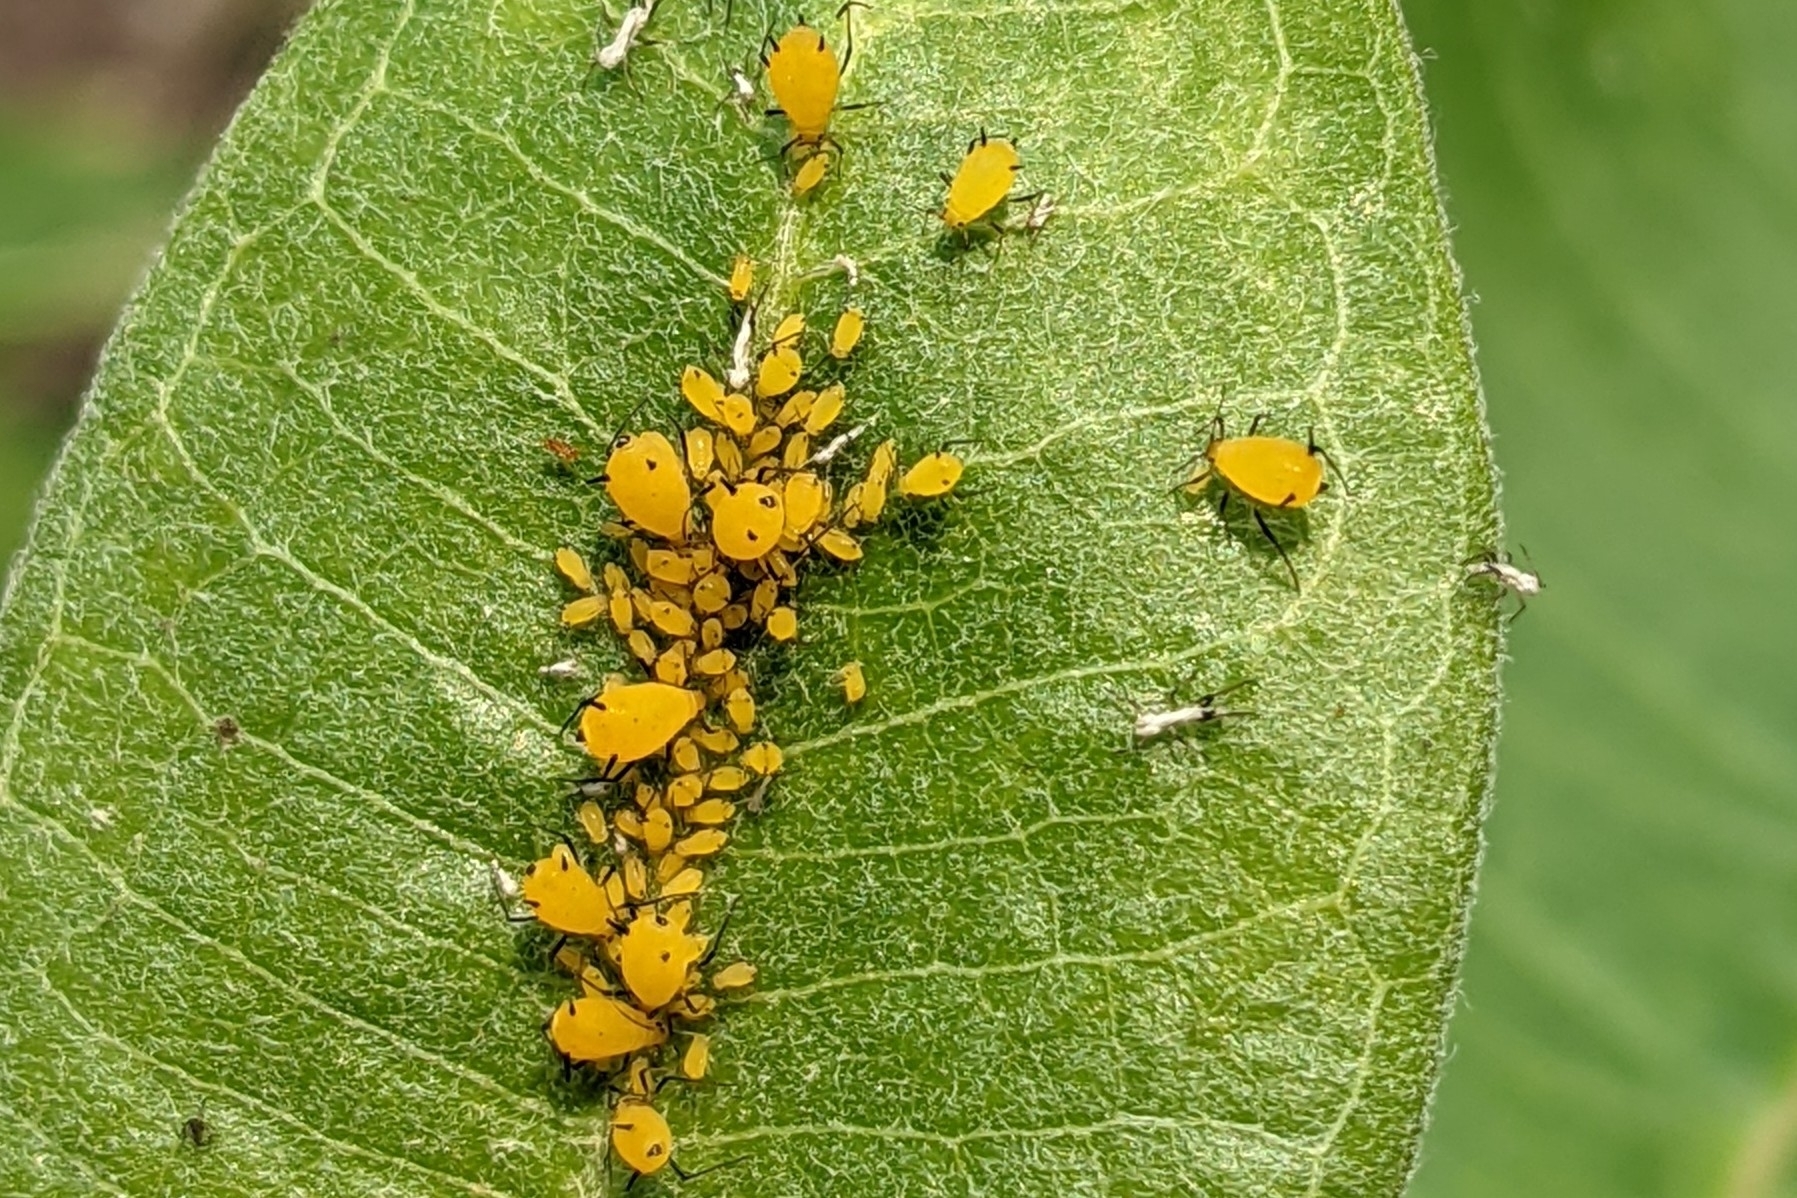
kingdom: Animalia
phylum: Arthropoda
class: Insecta
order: Hemiptera
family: Aphididae
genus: Aphis
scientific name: Aphis nerii
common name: Oleander aphid
